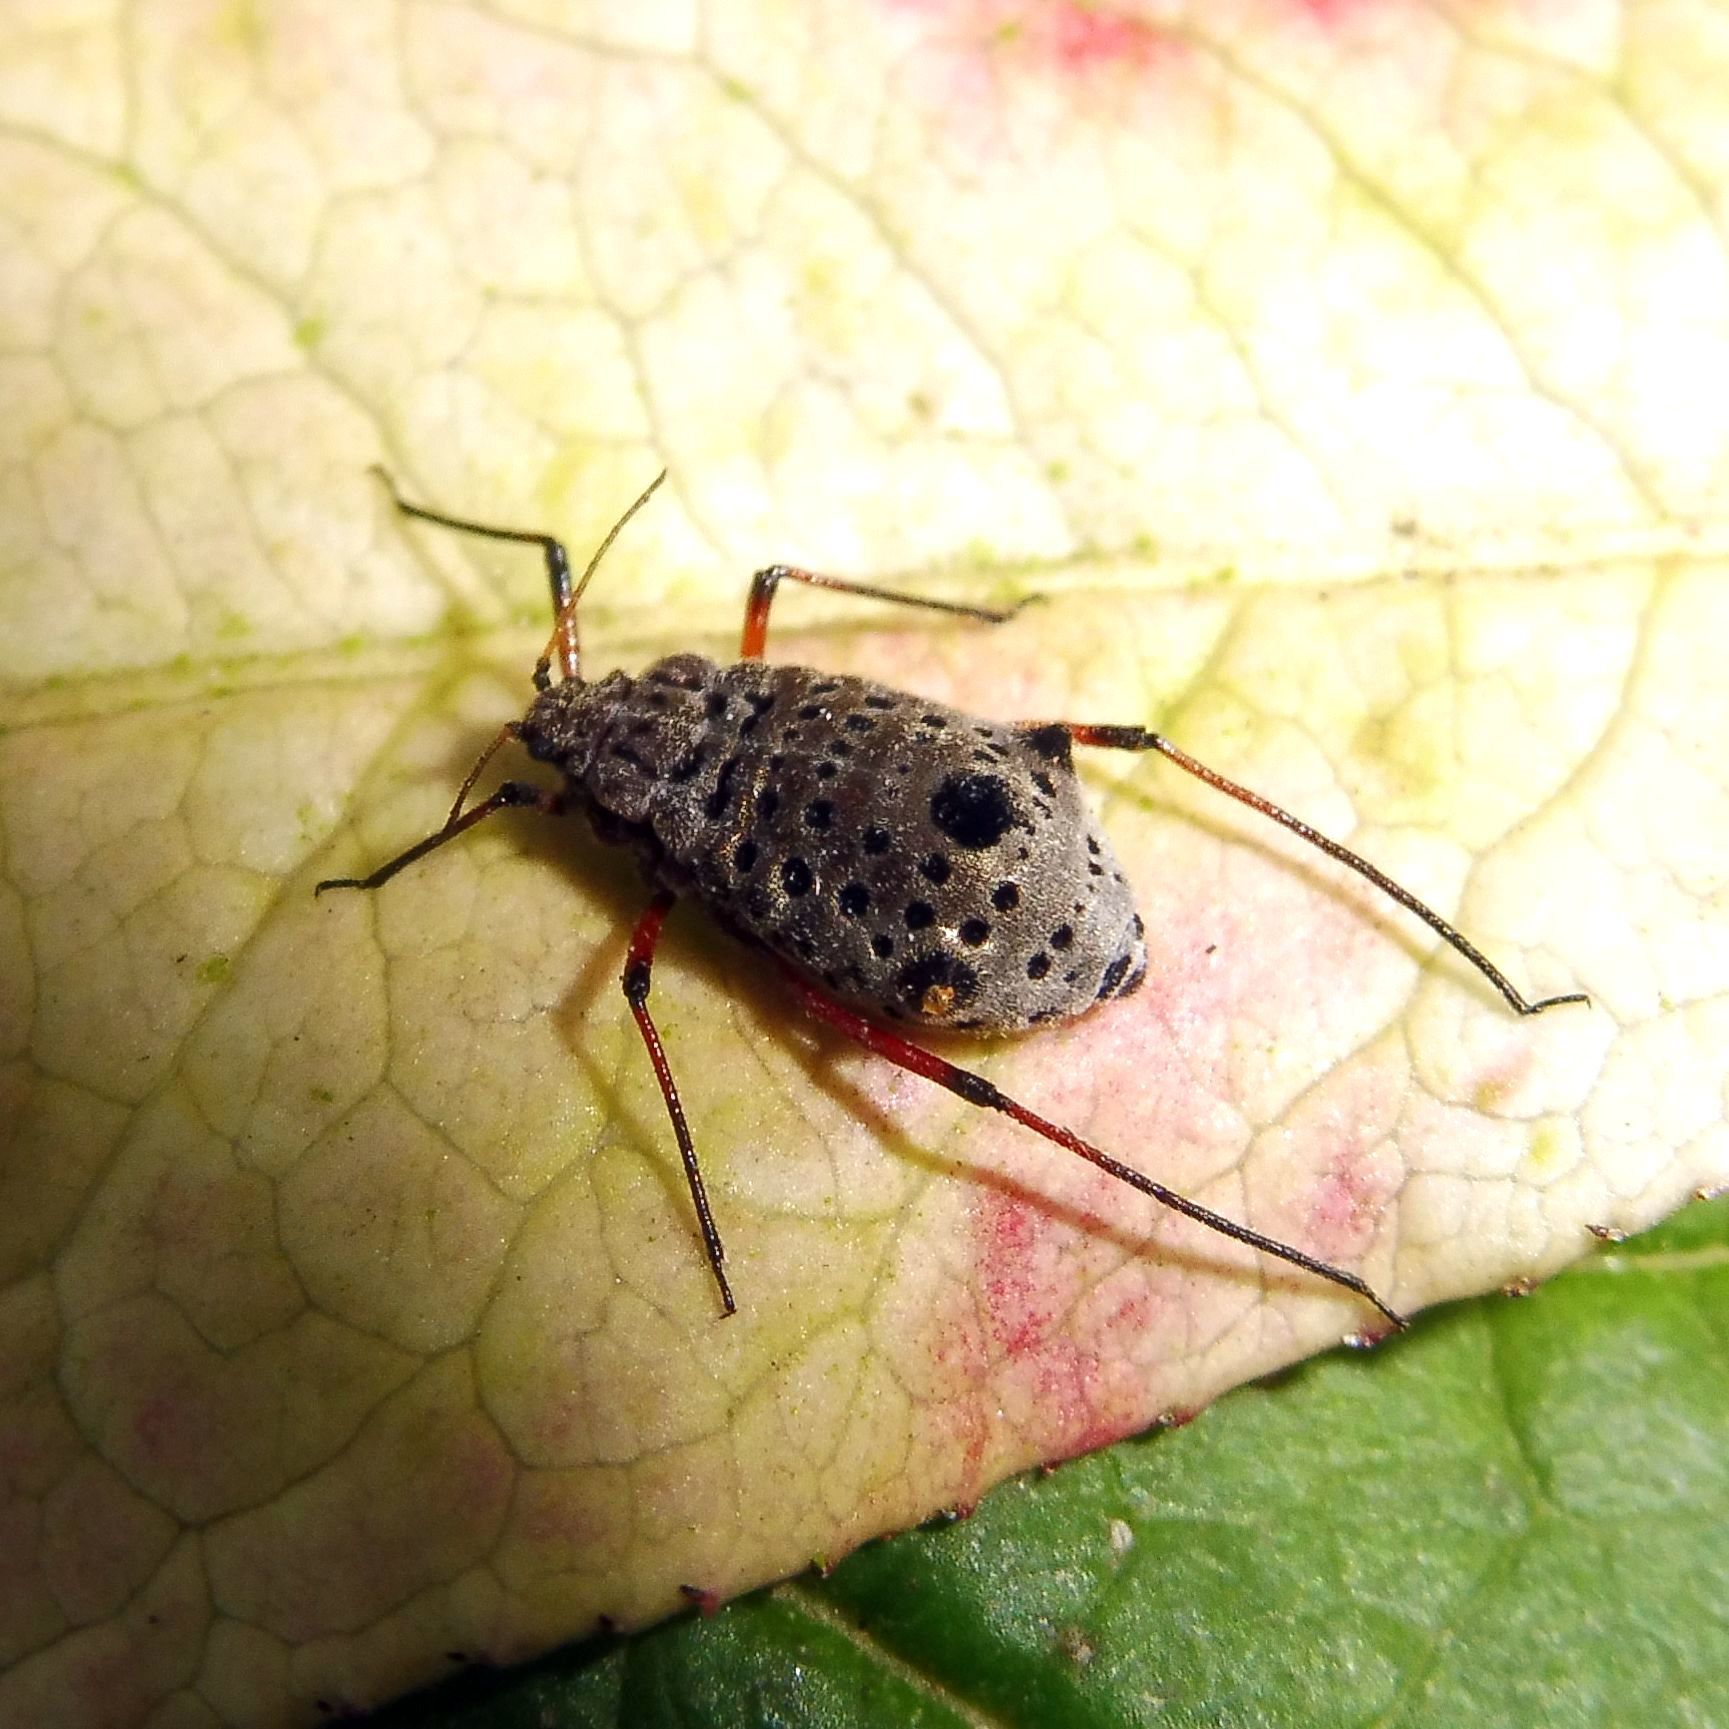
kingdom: Animalia
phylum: Arthropoda
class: Insecta
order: Hemiptera
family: Aphididae
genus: Tuberolachnus
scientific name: Tuberolachnus salignus
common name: Giant willow aphid
